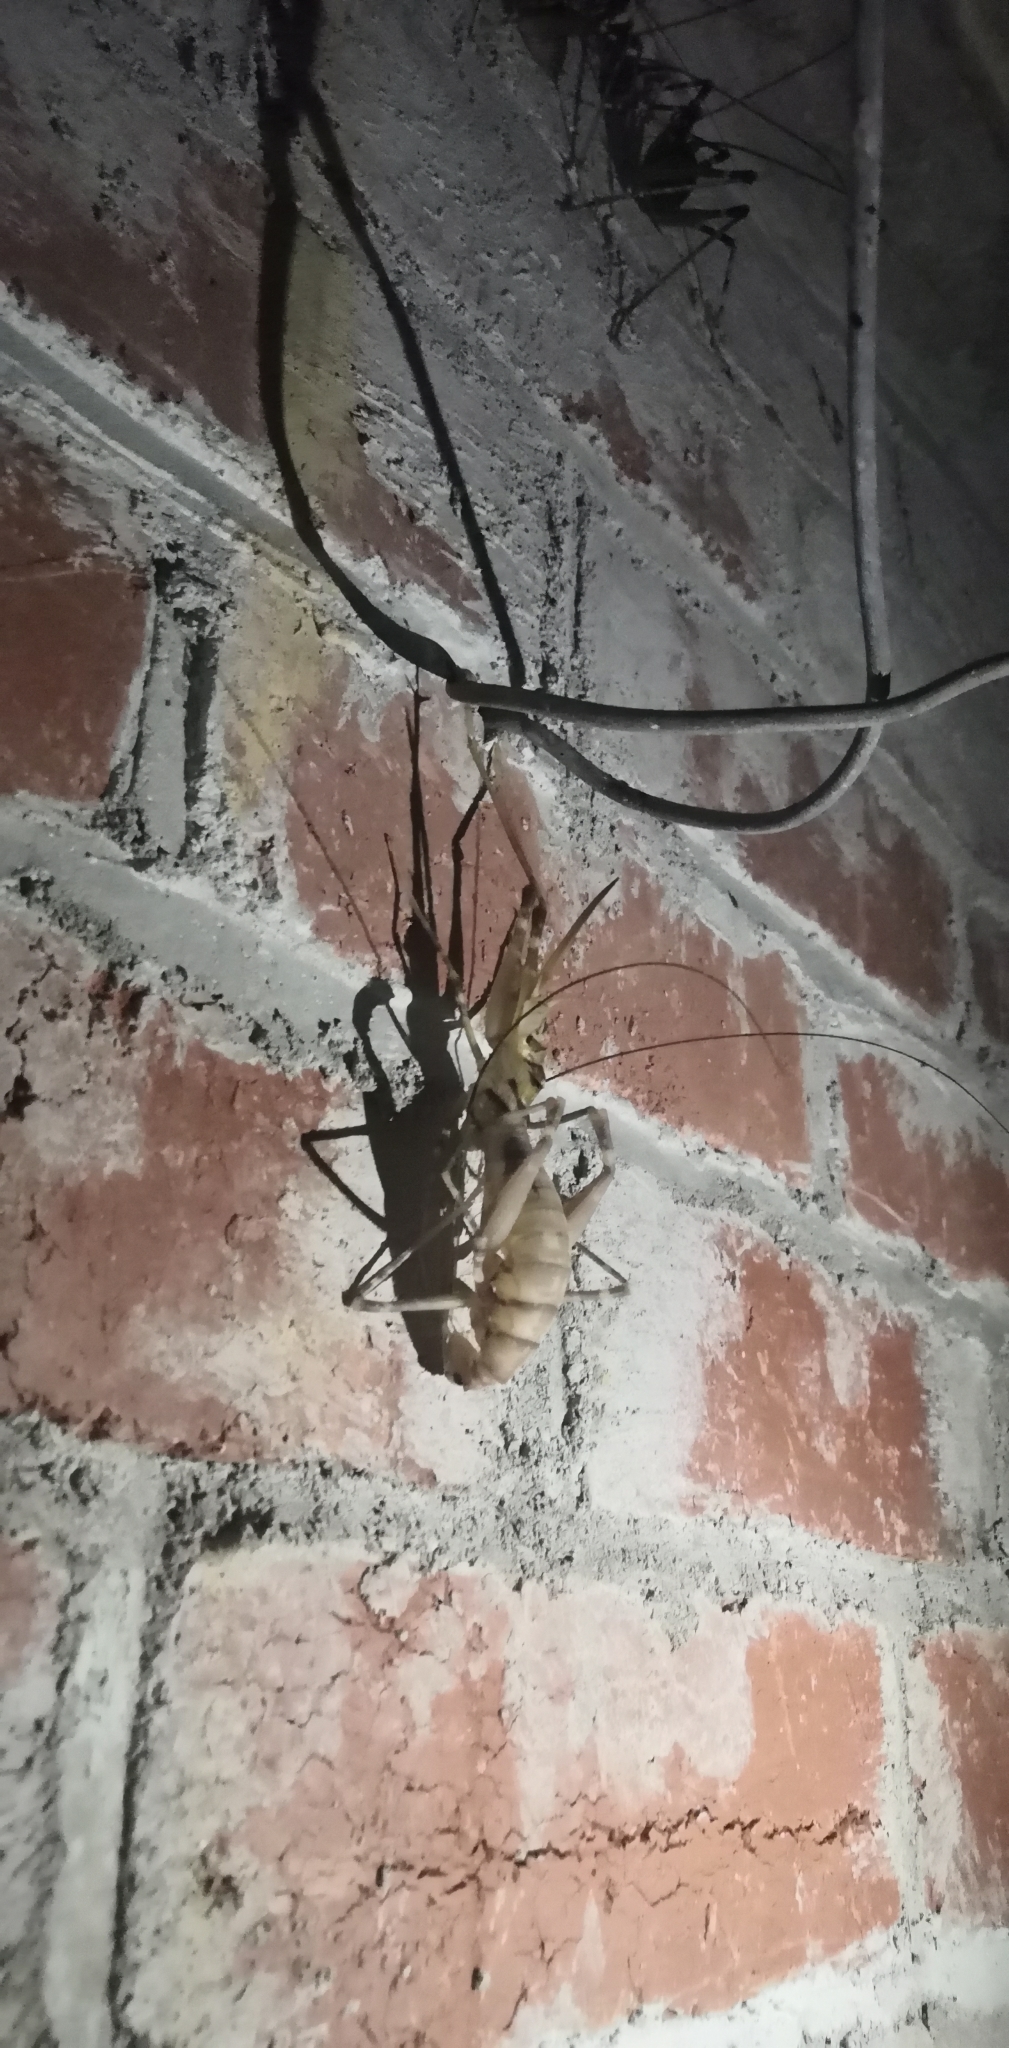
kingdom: Animalia
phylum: Arthropoda
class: Insecta
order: Orthoptera
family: Rhaphidophoridae
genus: Pachyrhamma
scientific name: Pachyrhamma edwardsii
